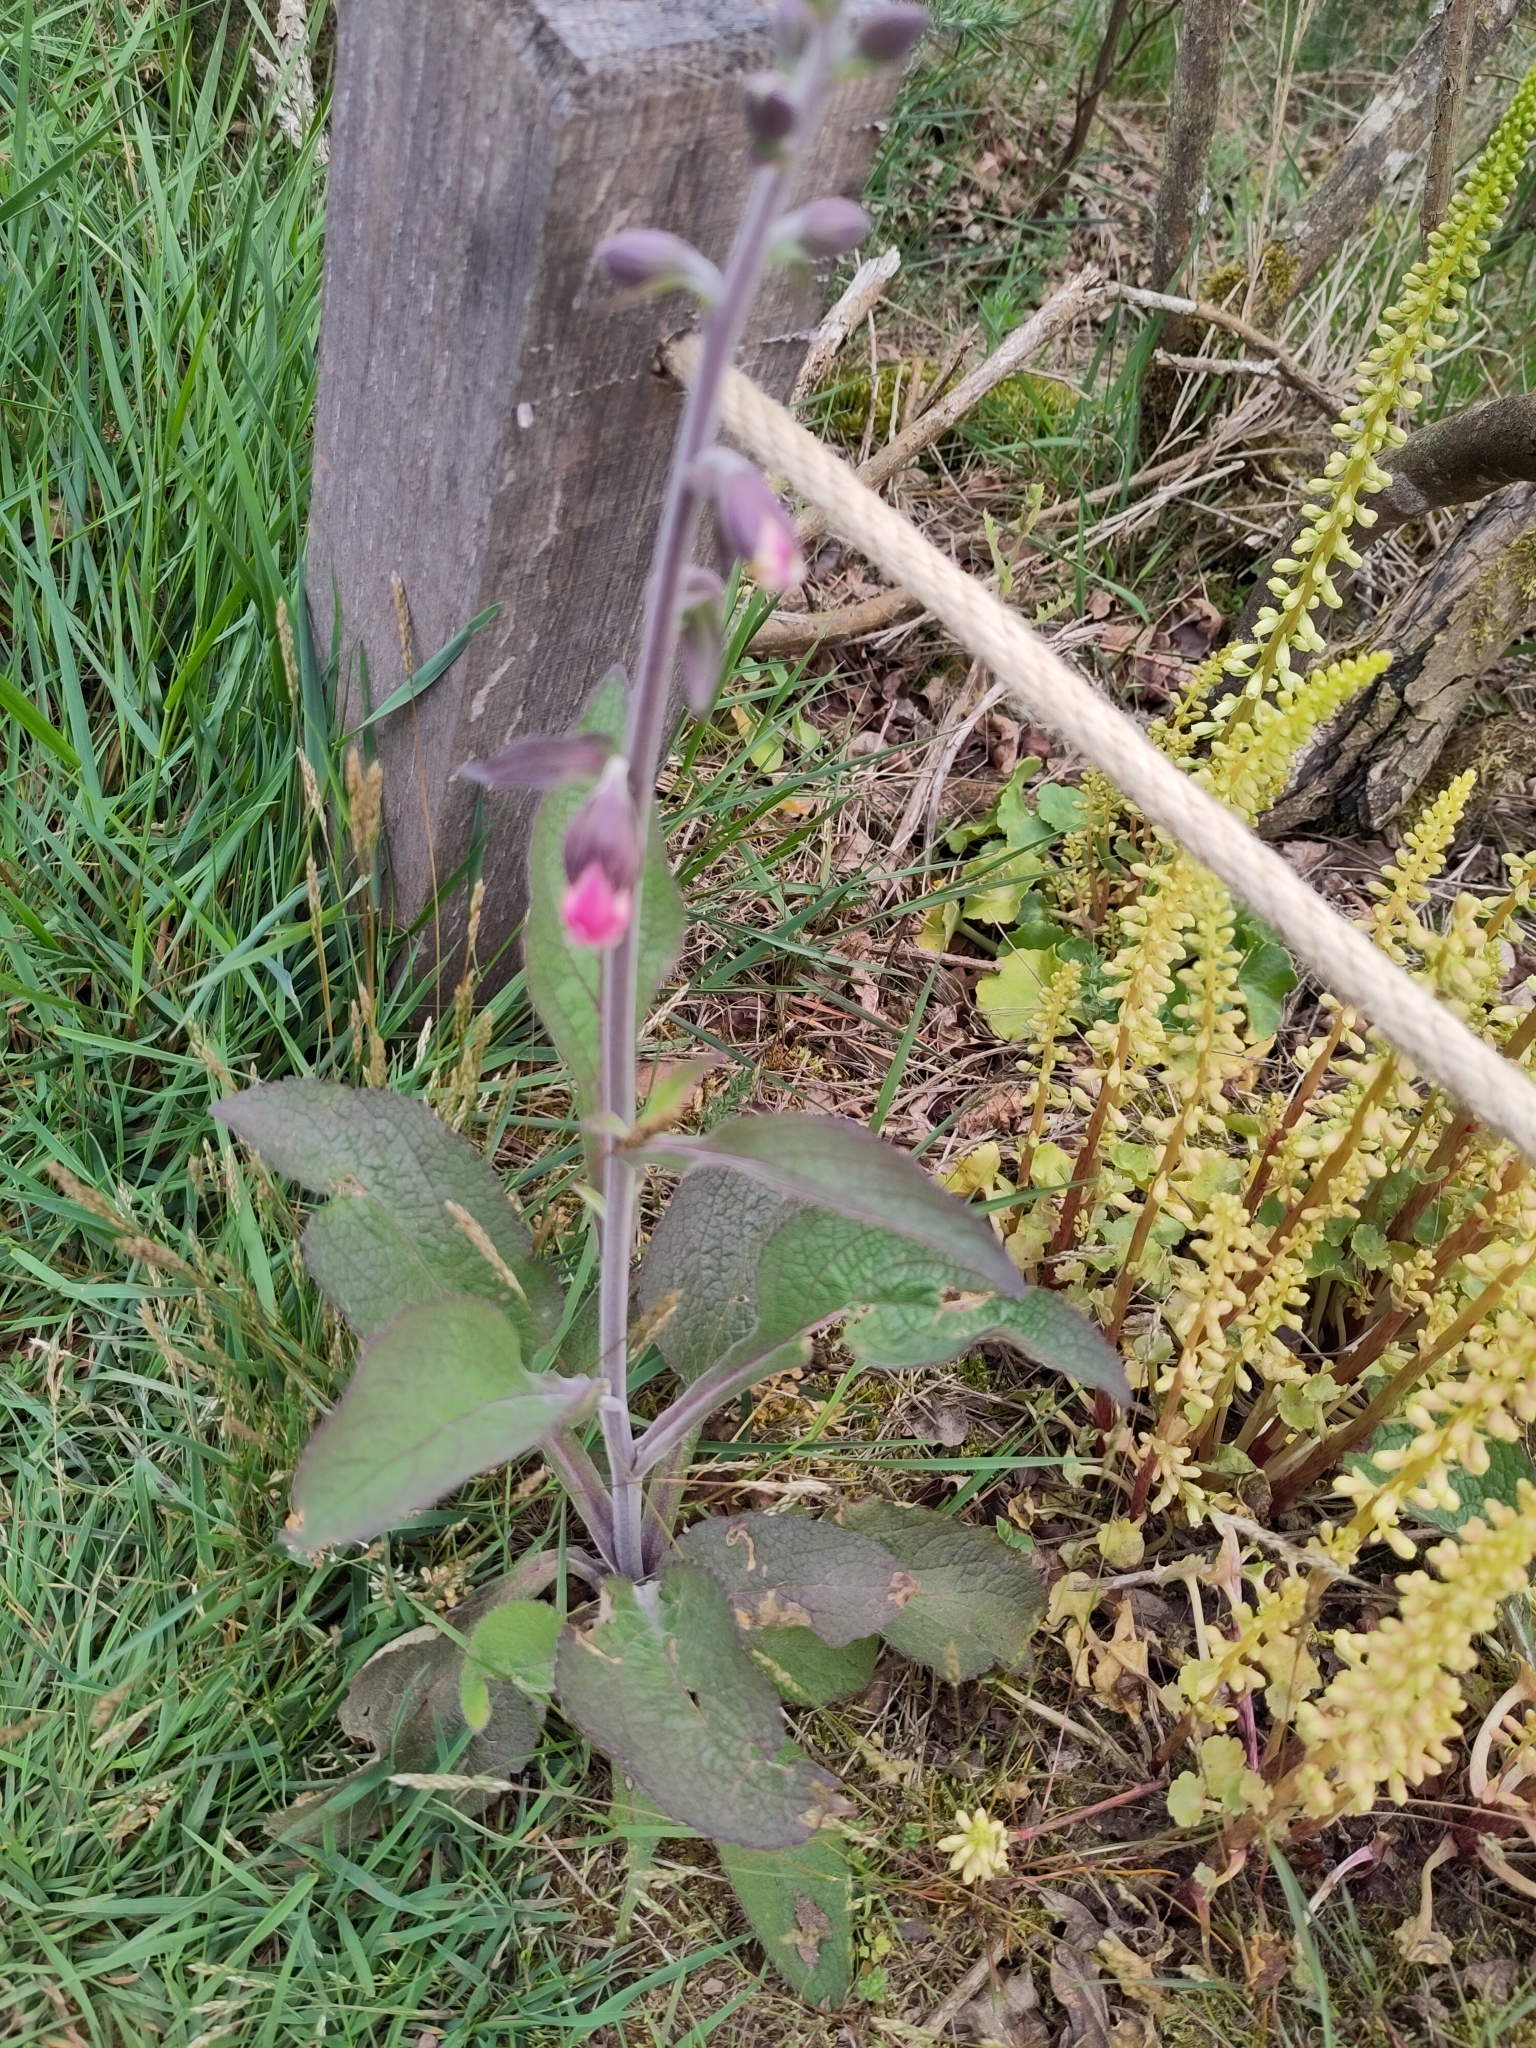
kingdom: Plantae
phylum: Tracheophyta
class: Magnoliopsida
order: Lamiales
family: Plantaginaceae
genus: Digitalis
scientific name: Digitalis purpurea
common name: Foxglove
